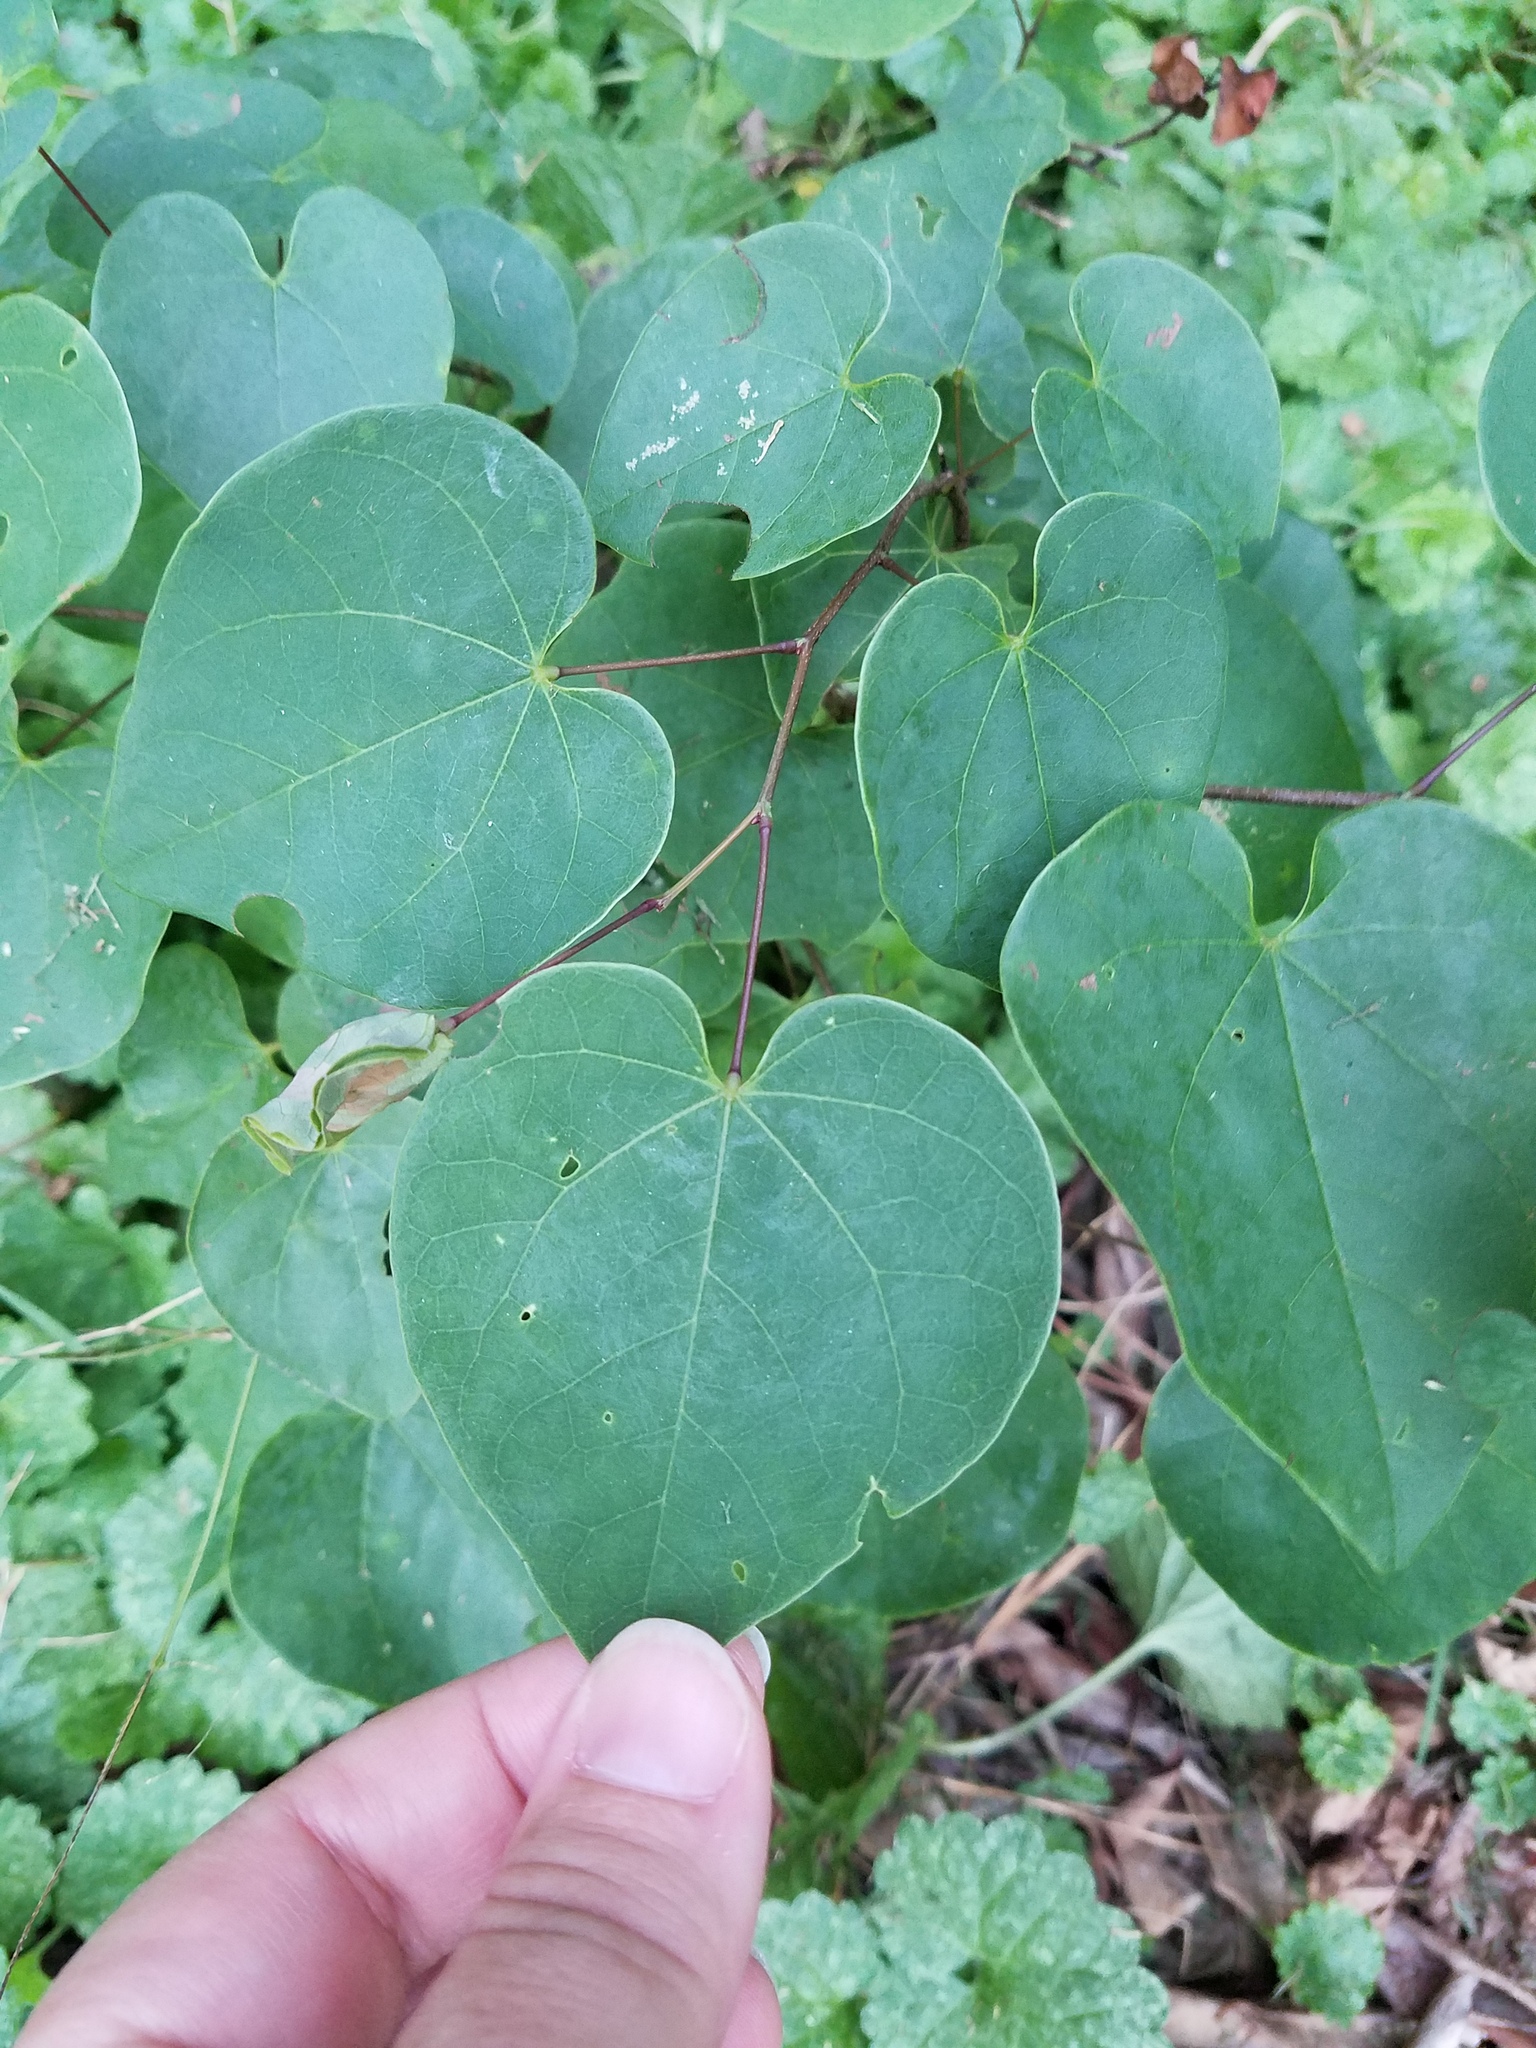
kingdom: Plantae
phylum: Tracheophyta
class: Magnoliopsida
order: Fabales
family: Fabaceae
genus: Cercis
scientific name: Cercis canadensis
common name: Eastern redbud
